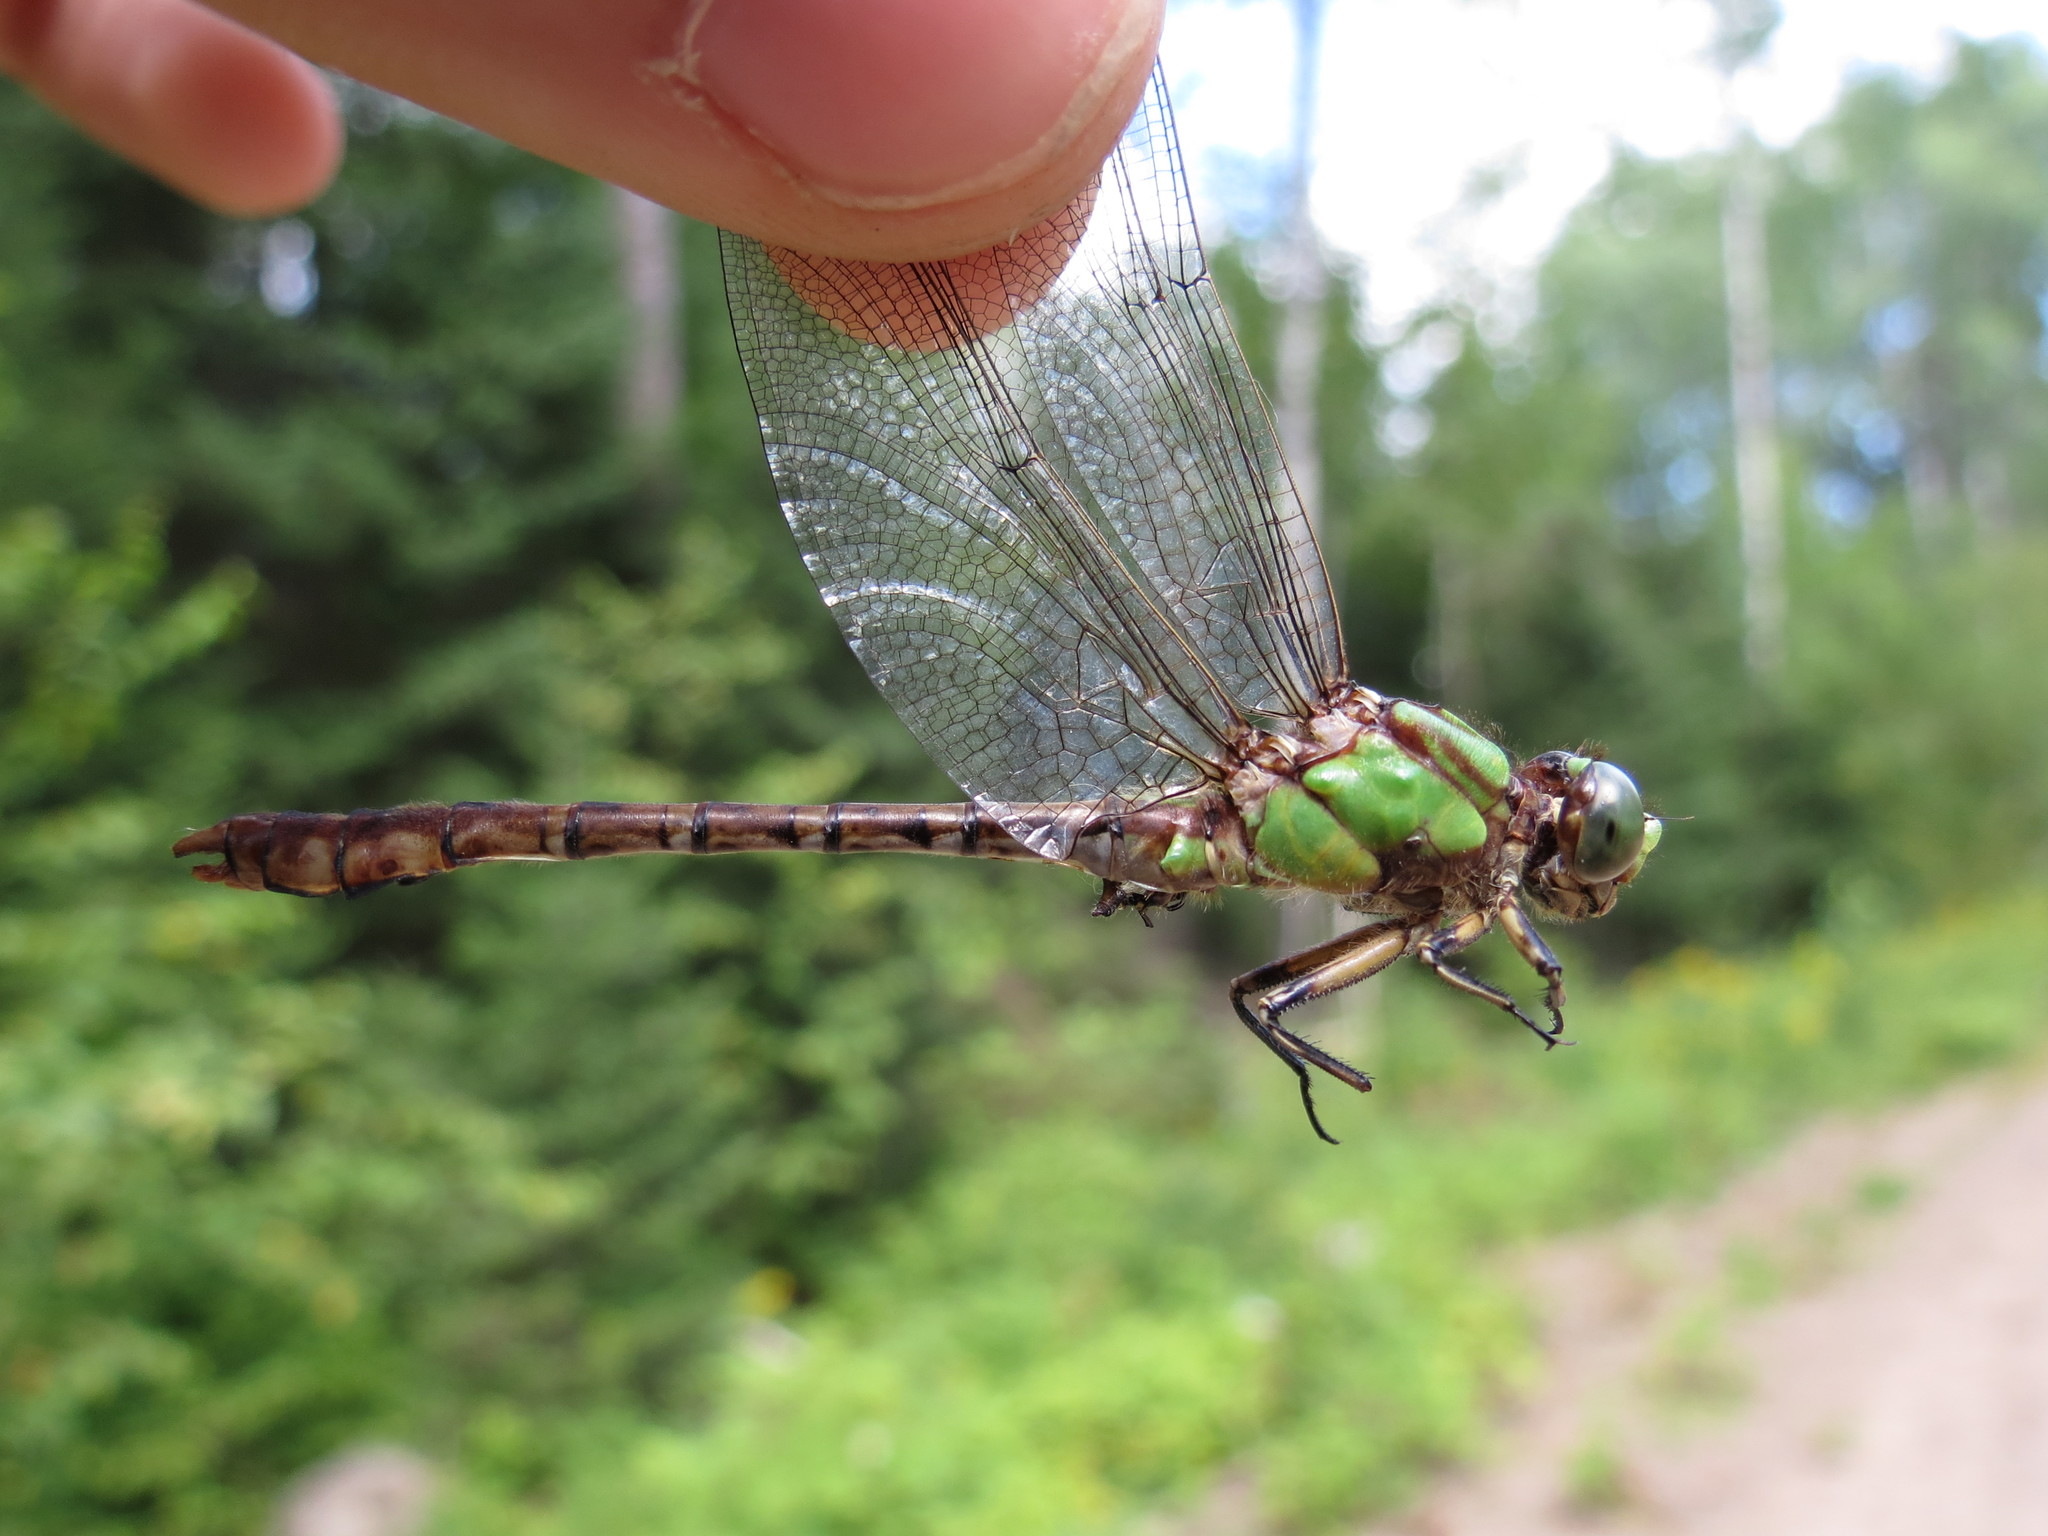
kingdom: Animalia
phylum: Arthropoda
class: Insecta
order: Odonata
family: Gomphidae
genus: Ophiogomphus
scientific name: Ophiogomphus rupinsulensis
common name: Rusty snaketail
